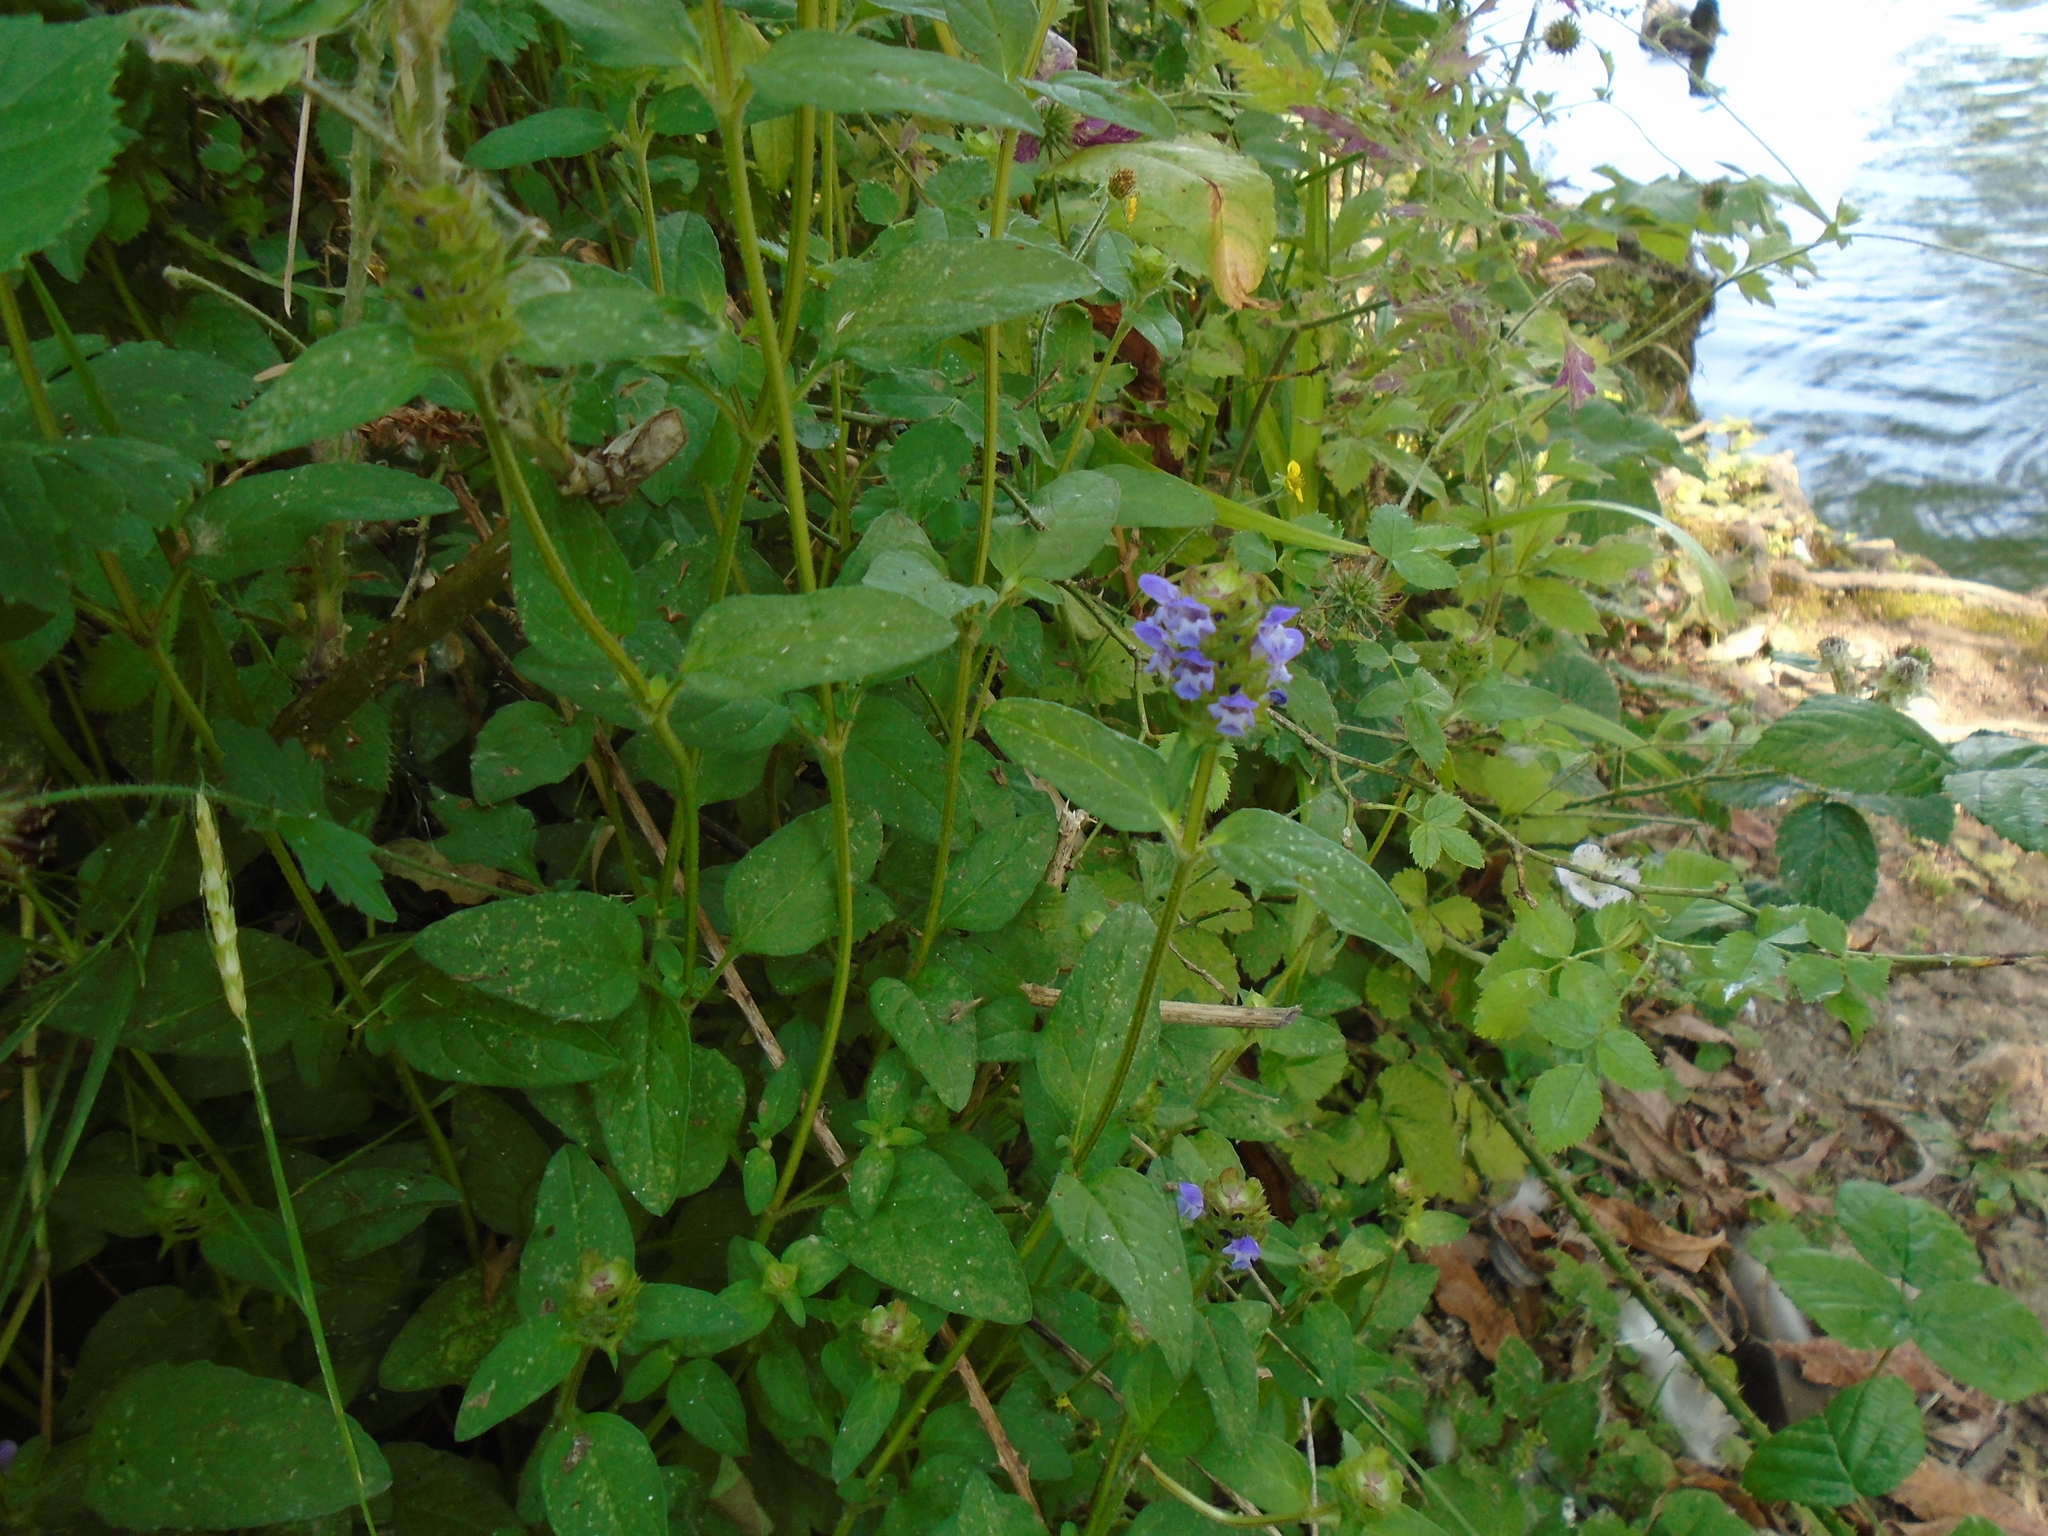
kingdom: Plantae
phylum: Tracheophyta
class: Magnoliopsida
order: Lamiales
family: Lamiaceae
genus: Prunella
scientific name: Prunella vulgaris
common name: Heal-all
